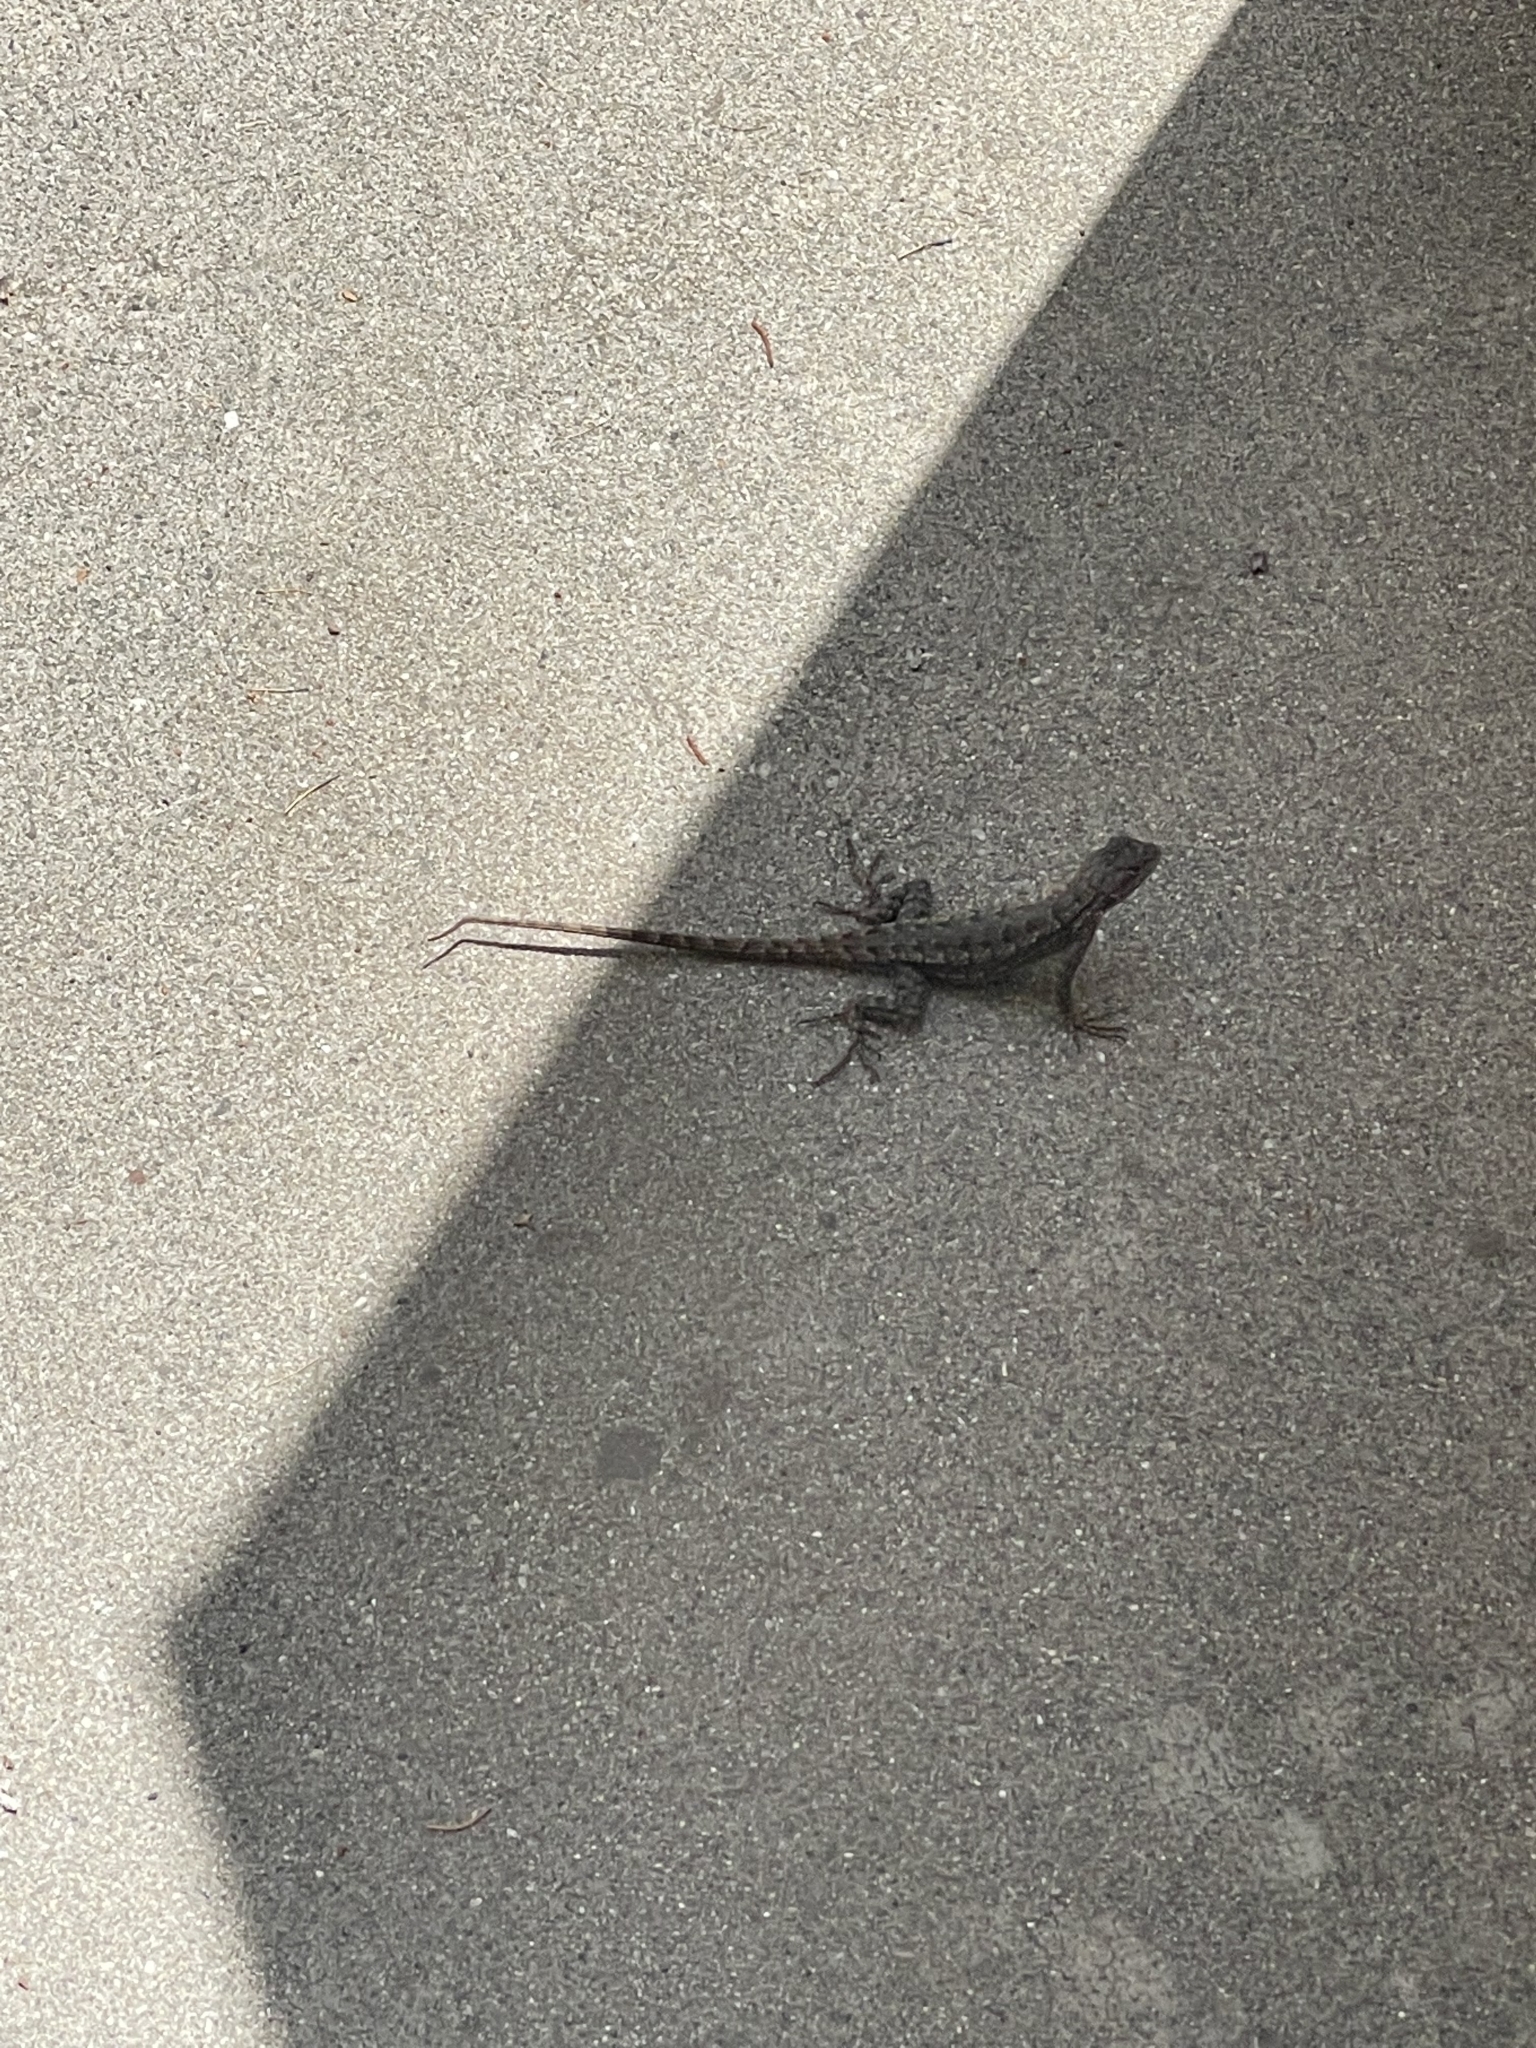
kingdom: Animalia
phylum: Chordata
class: Squamata
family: Phrynosomatidae
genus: Sceloporus
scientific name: Sceloporus occidentalis
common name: Western fence lizard
